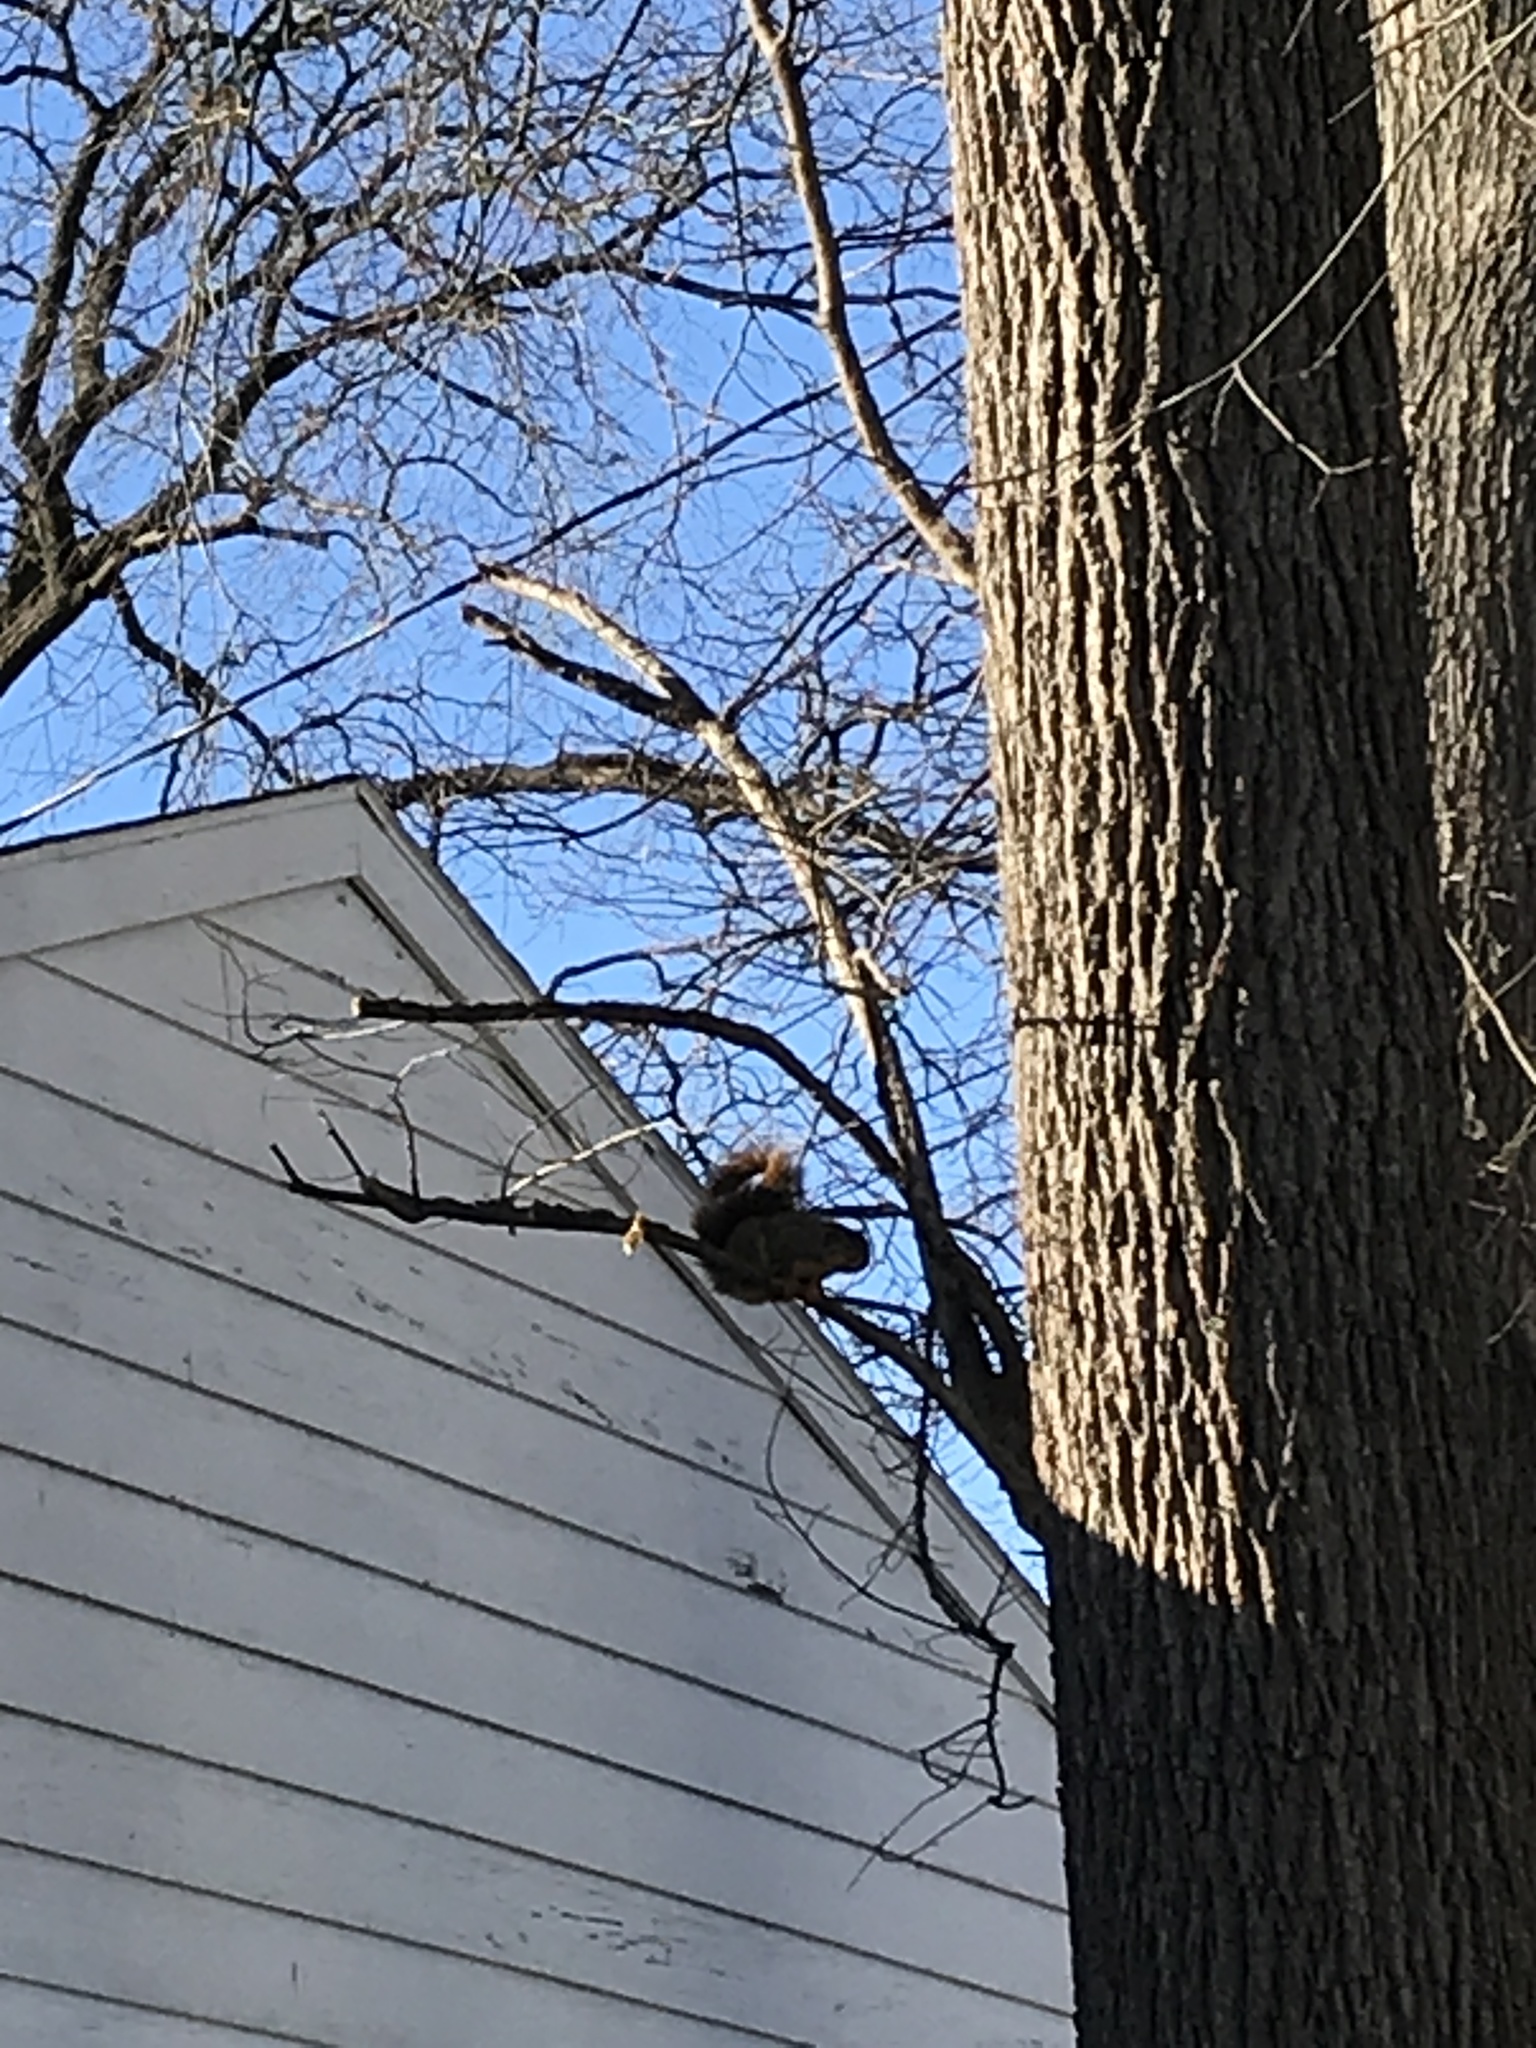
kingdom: Animalia
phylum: Chordata
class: Mammalia
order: Rodentia
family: Sciuridae
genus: Sciurus
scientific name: Sciurus niger
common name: Fox squirrel
